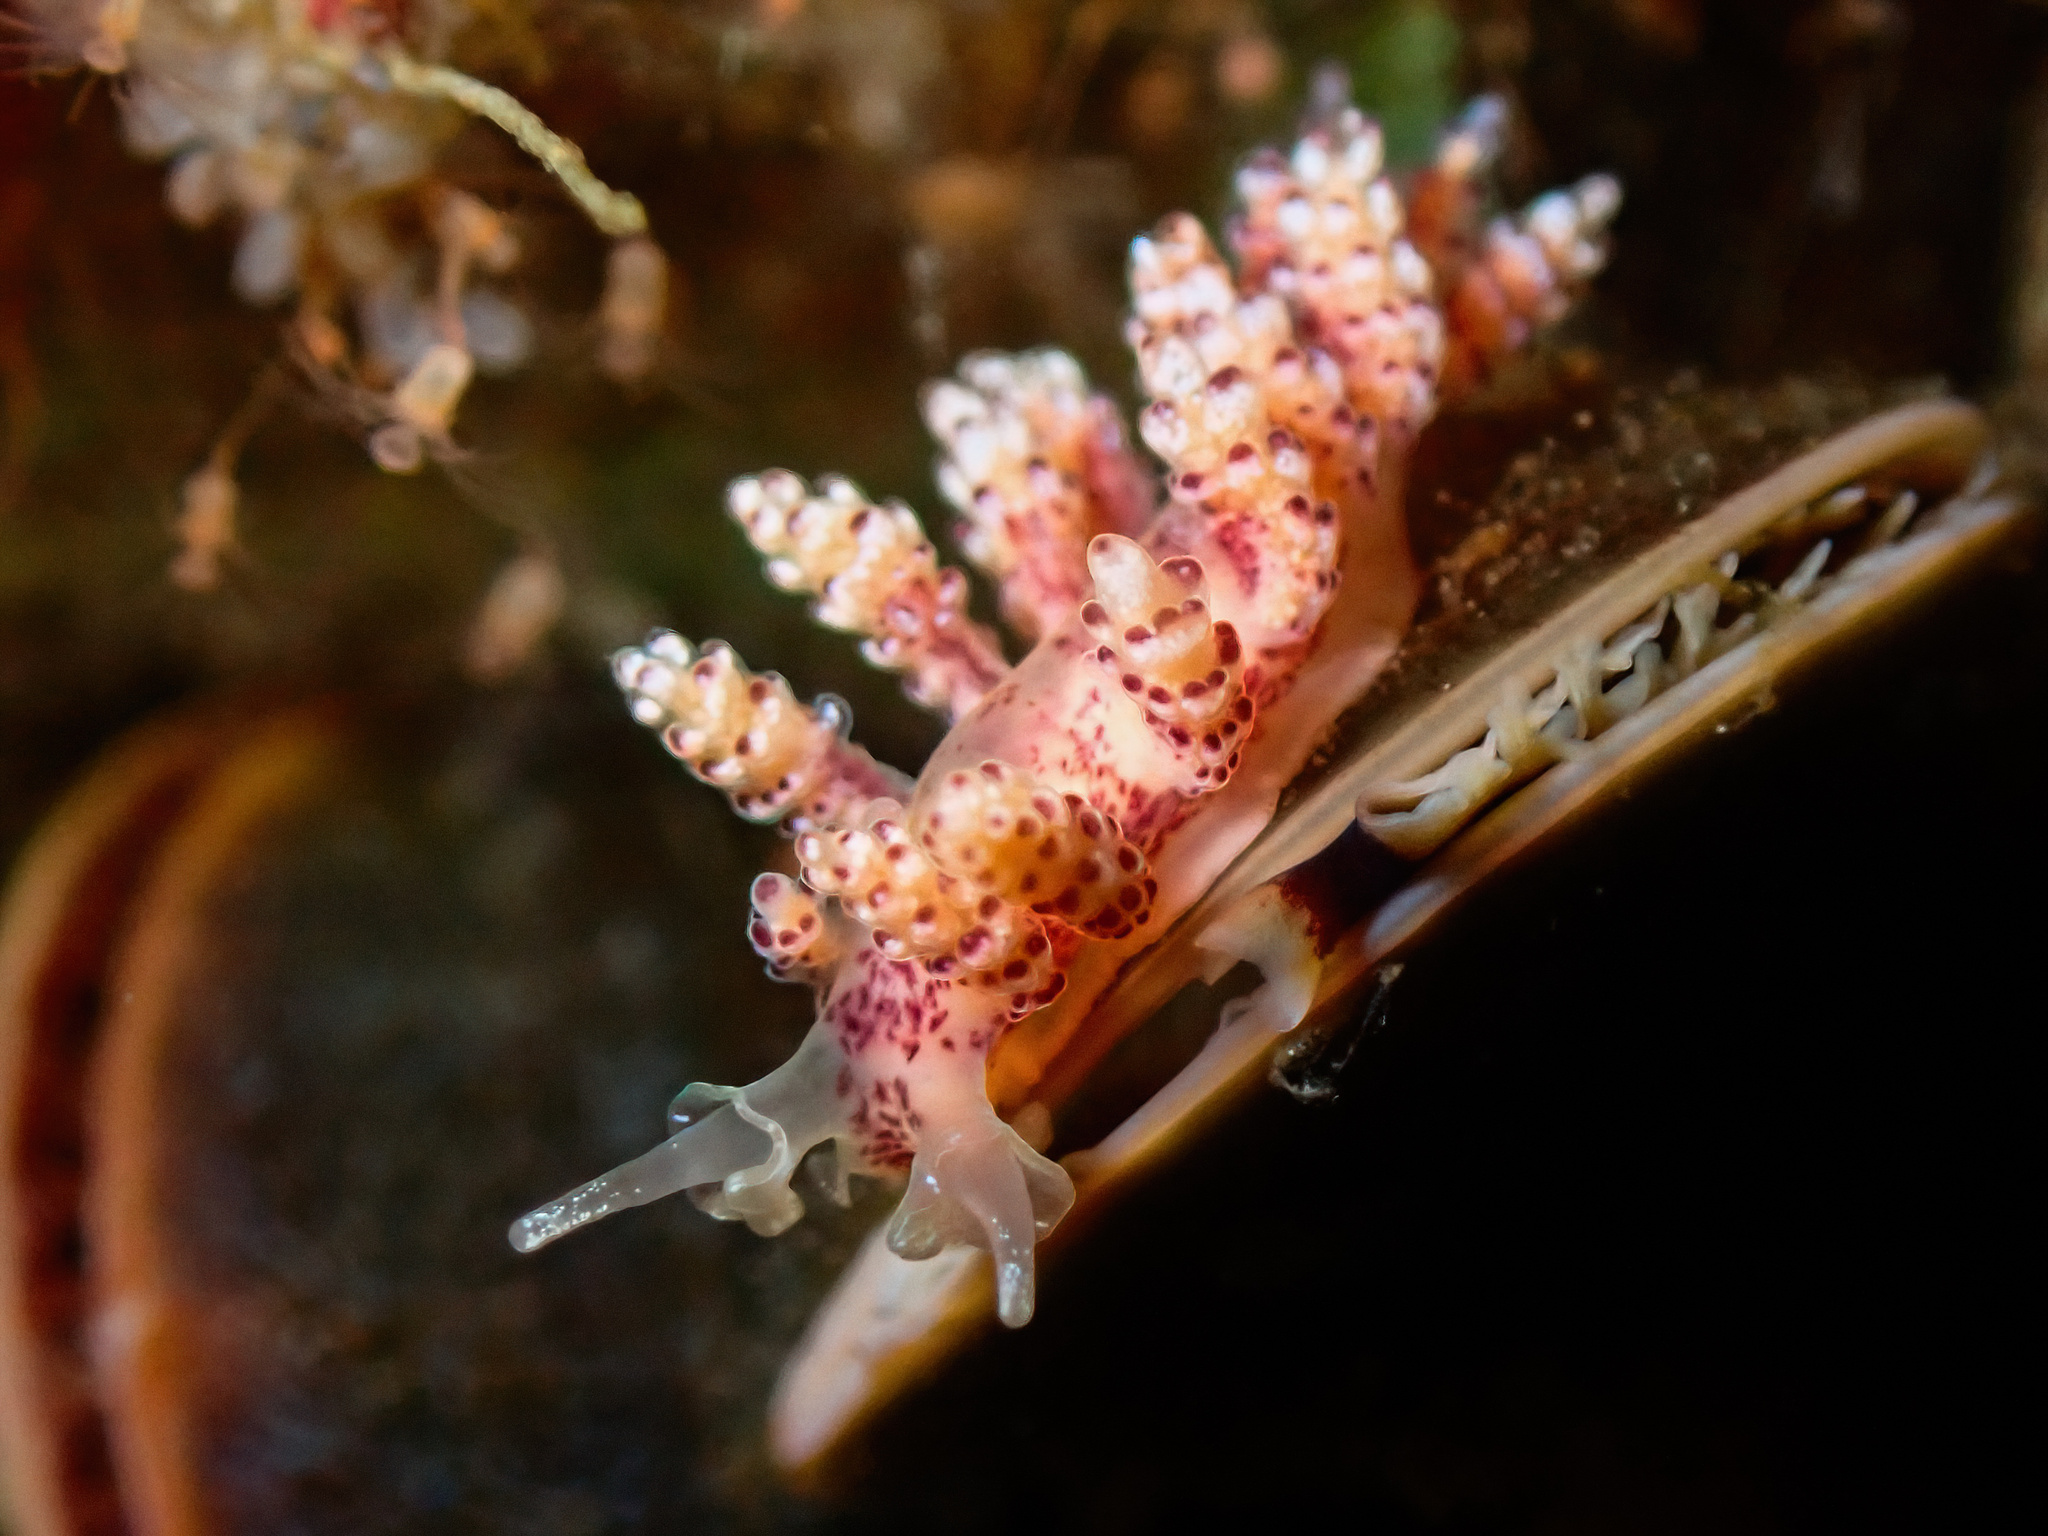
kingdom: Animalia
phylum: Mollusca
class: Gastropoda
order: Nudibranchia
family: Dotidae
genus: Doto
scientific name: Doto coronata
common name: Coronate doto
